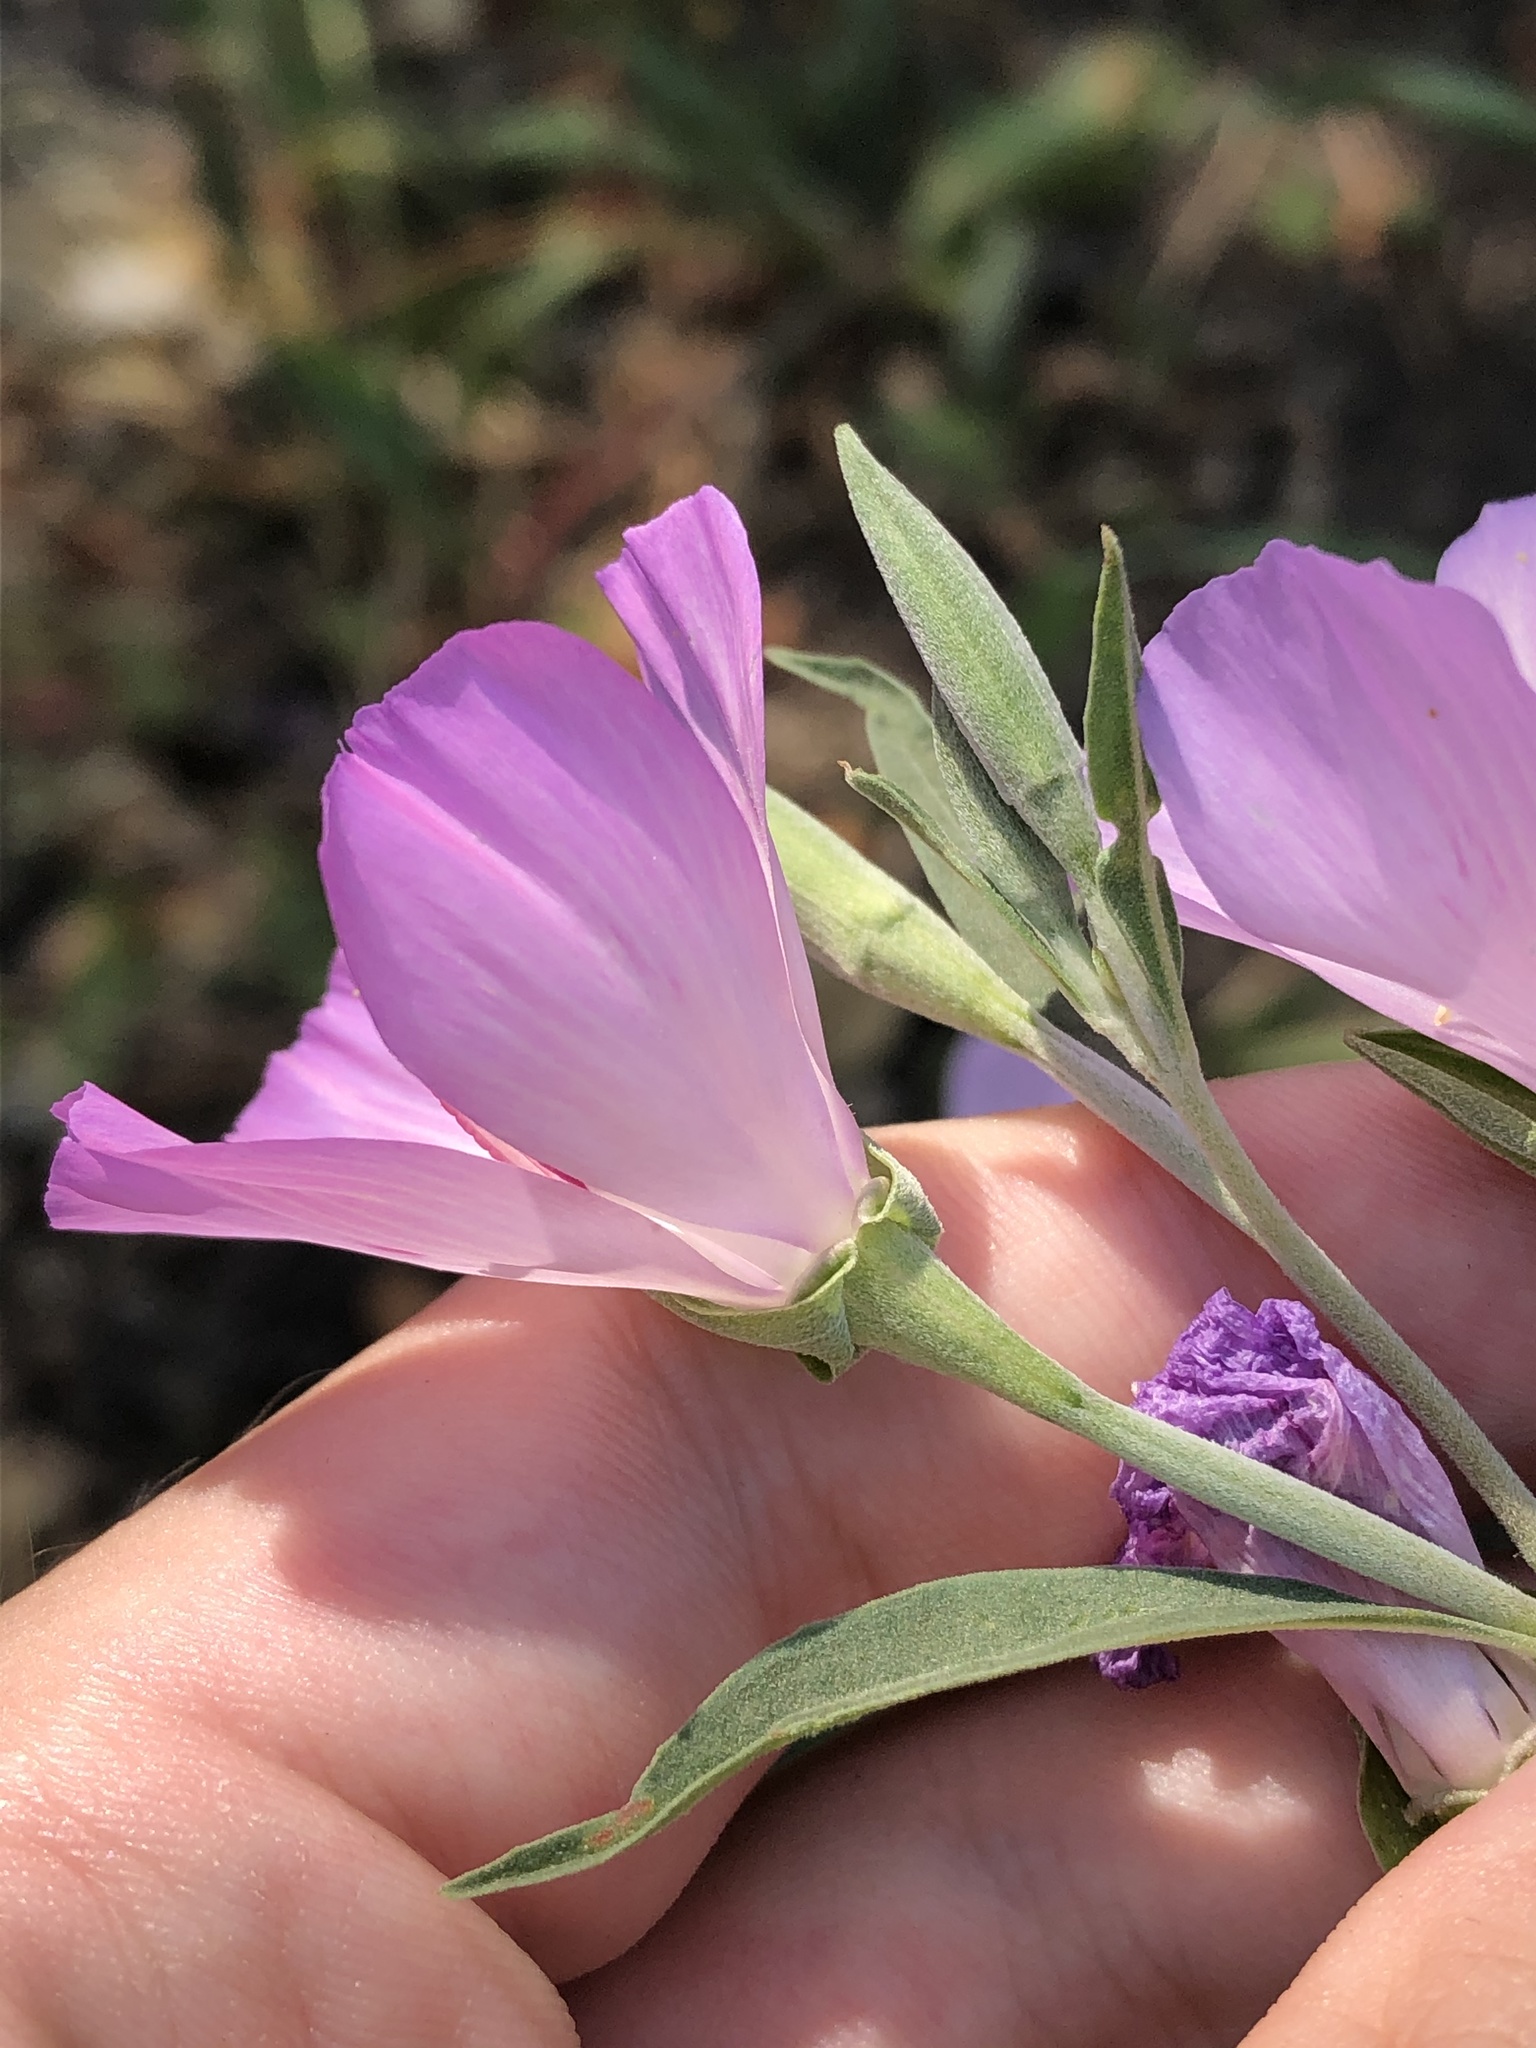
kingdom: Plantae
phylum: Tracheophyta
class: Magnoliopsida
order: Myrtales
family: Onagraceae
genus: Clarkia
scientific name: Clarkia amoena
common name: Godetia
